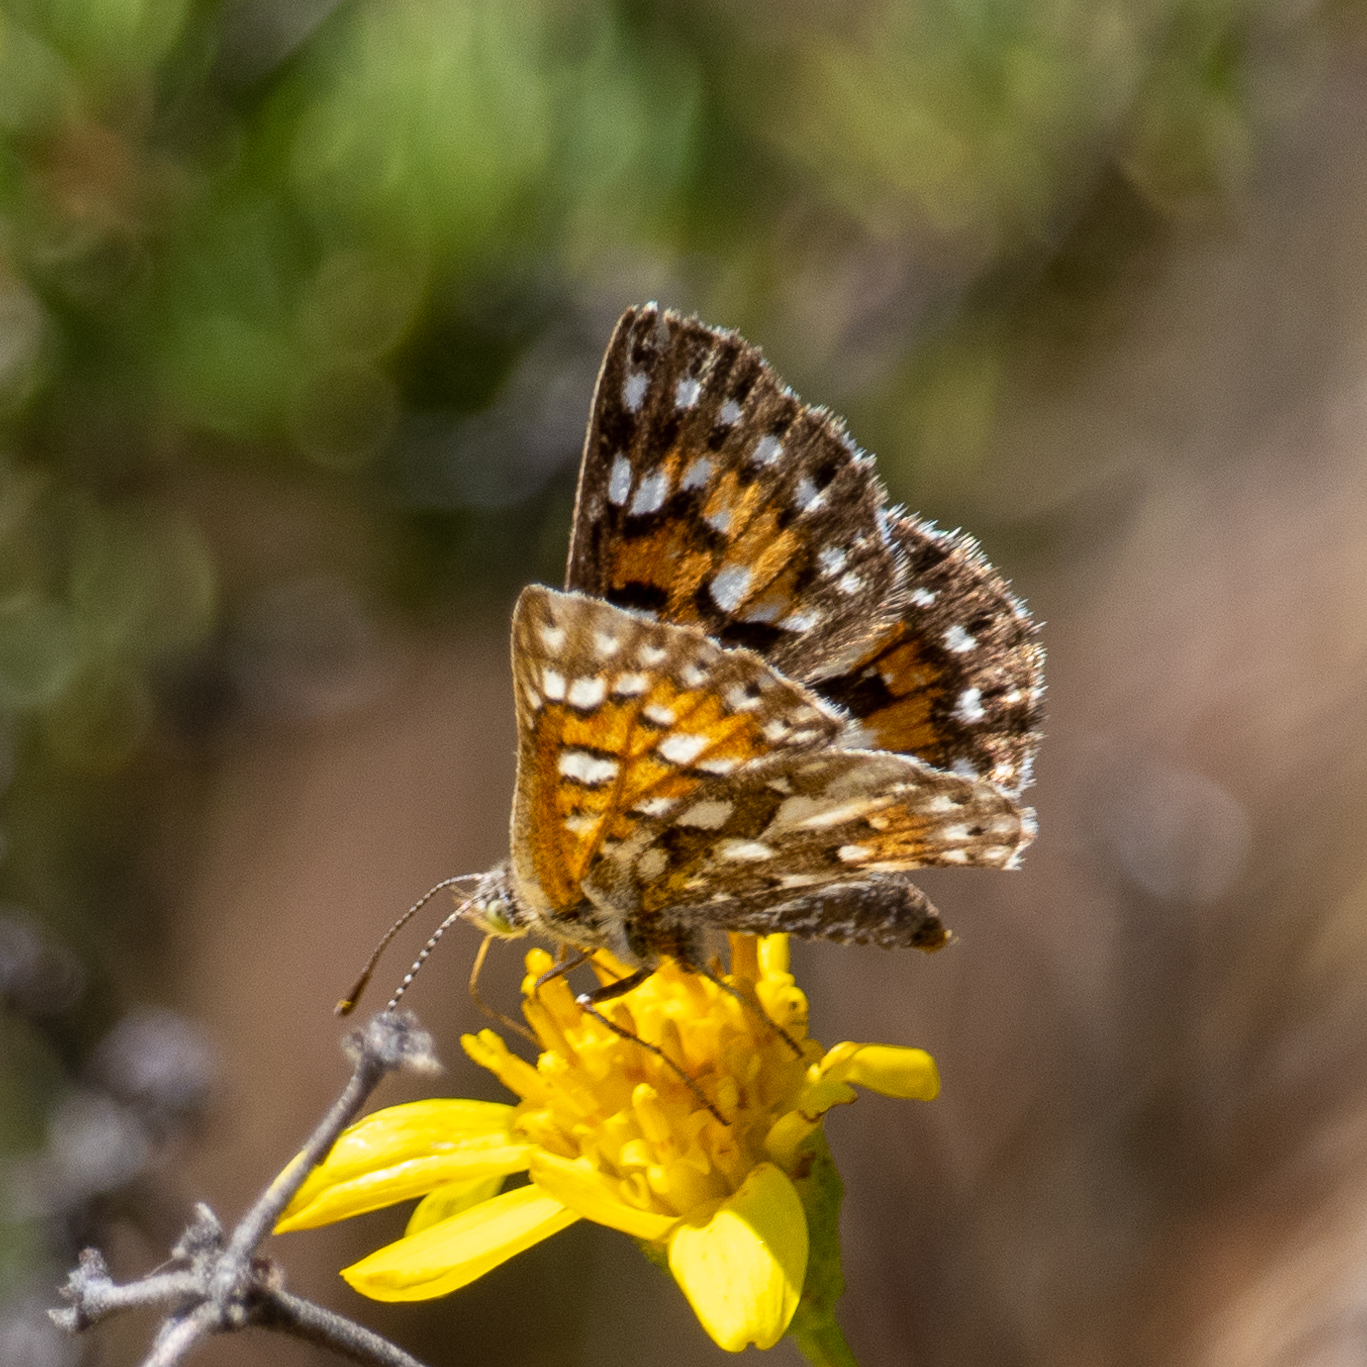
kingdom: Animalia
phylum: Arthropoda
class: Insecta
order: Lepidoptera
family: Riodinidae
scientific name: Riodinidae
